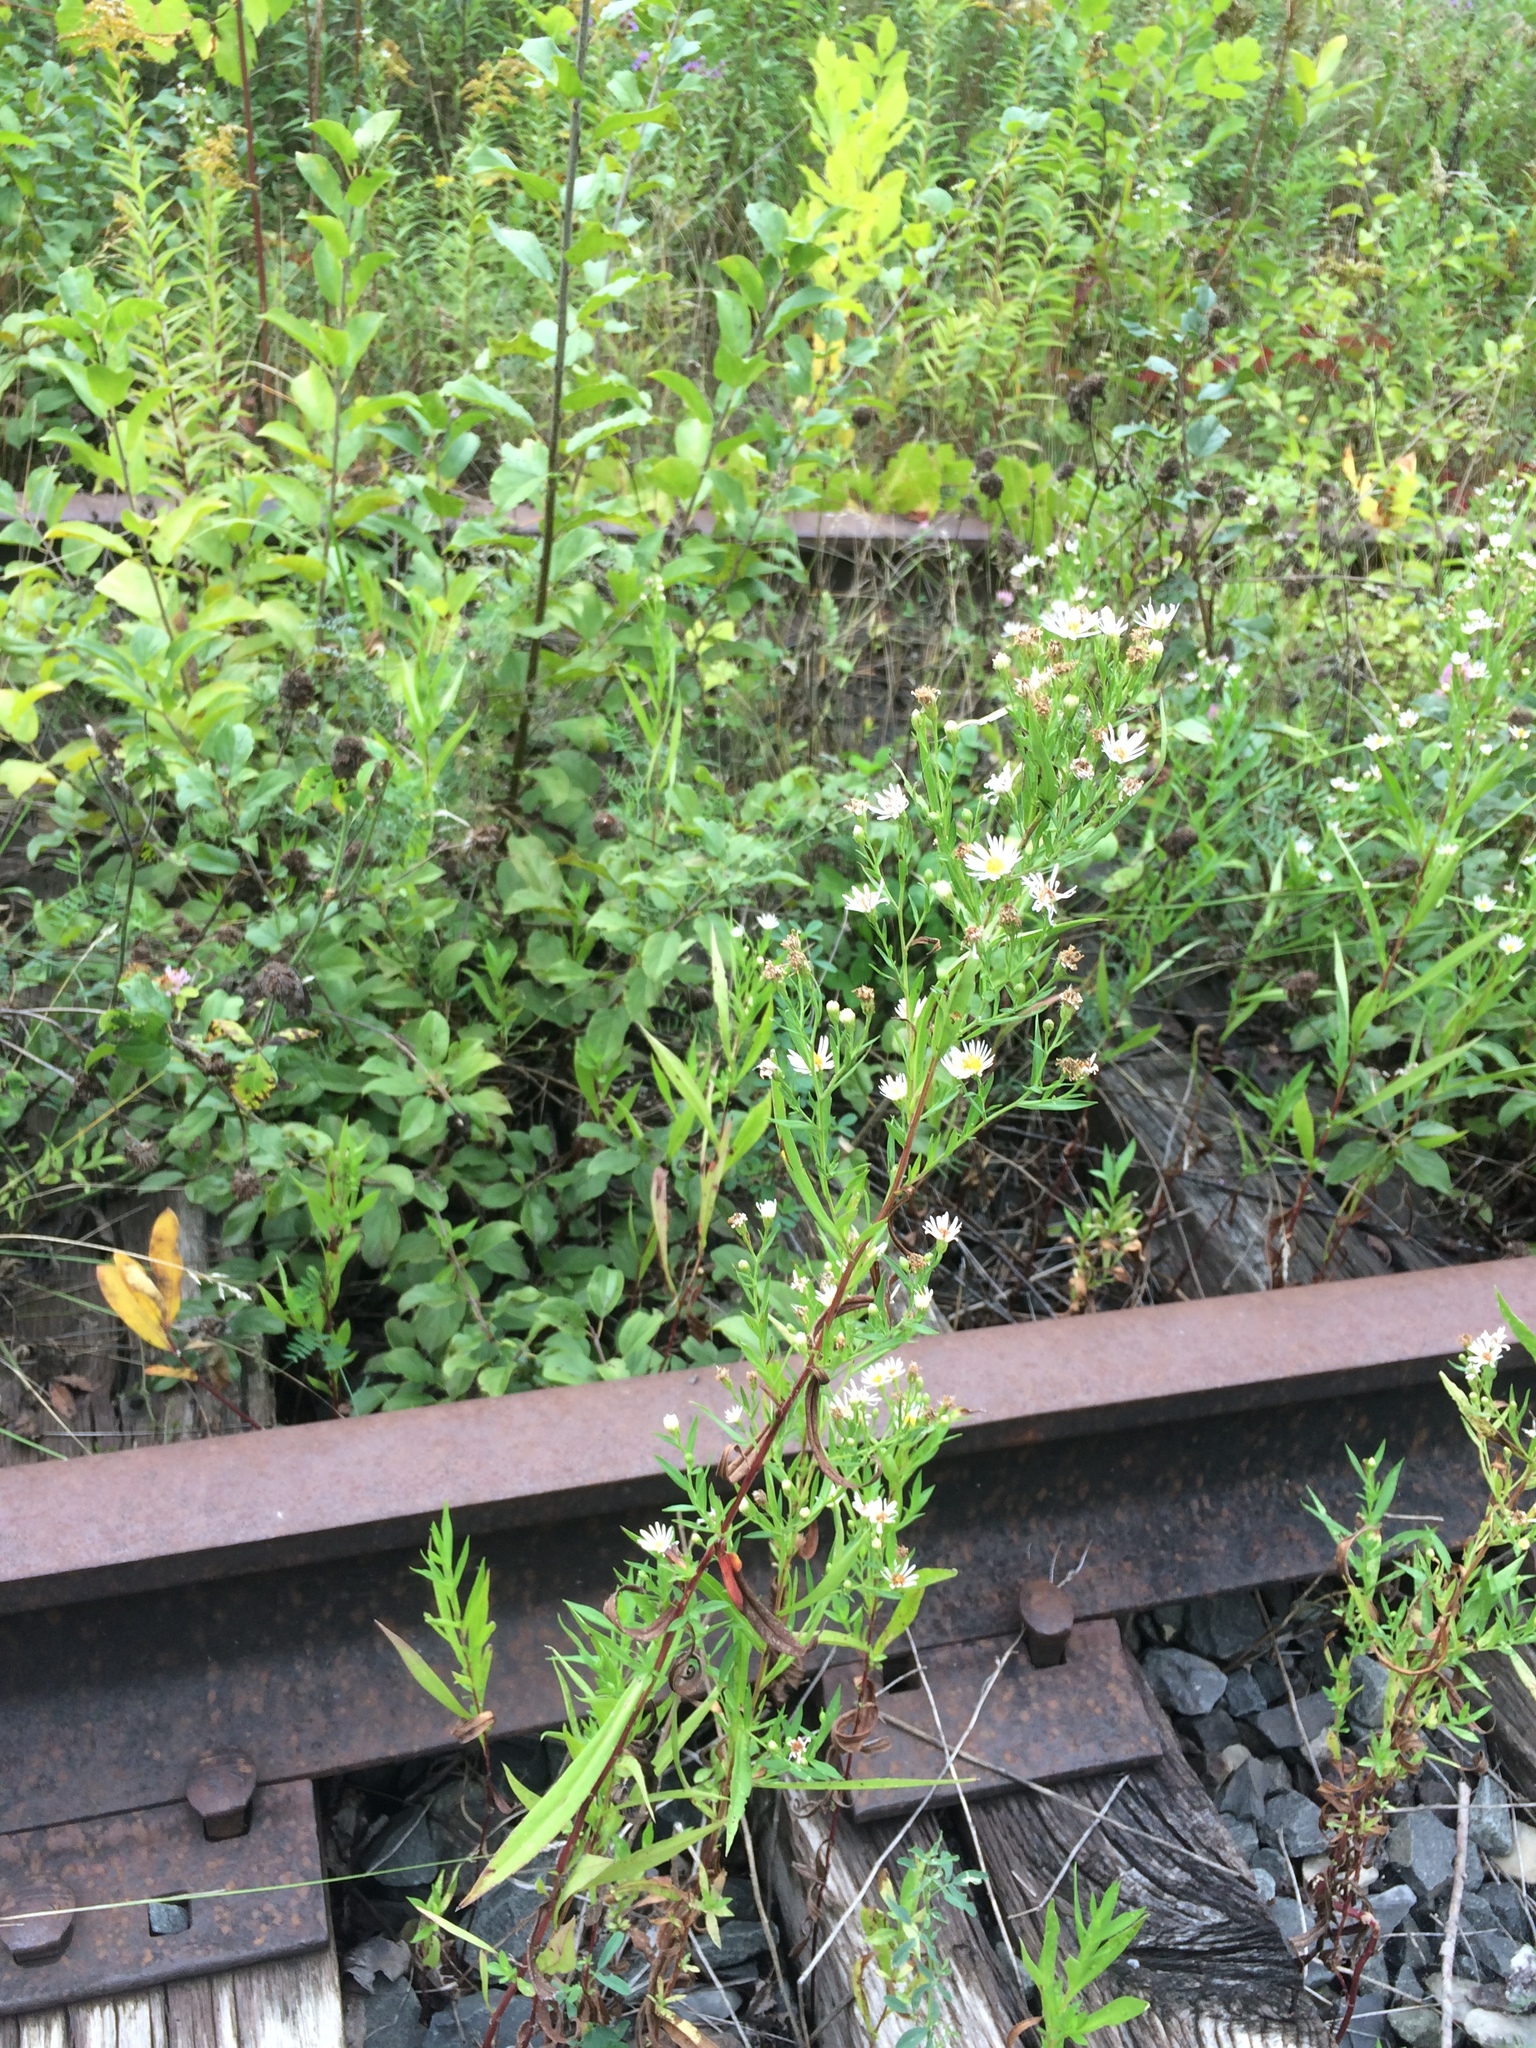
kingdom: Plantae
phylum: Tracheophyta
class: Magnoliopsida
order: Asterales
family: Asteraceae
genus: Symphyotrichum
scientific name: Symphyotrichum lanceolatum
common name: Panicled aster
